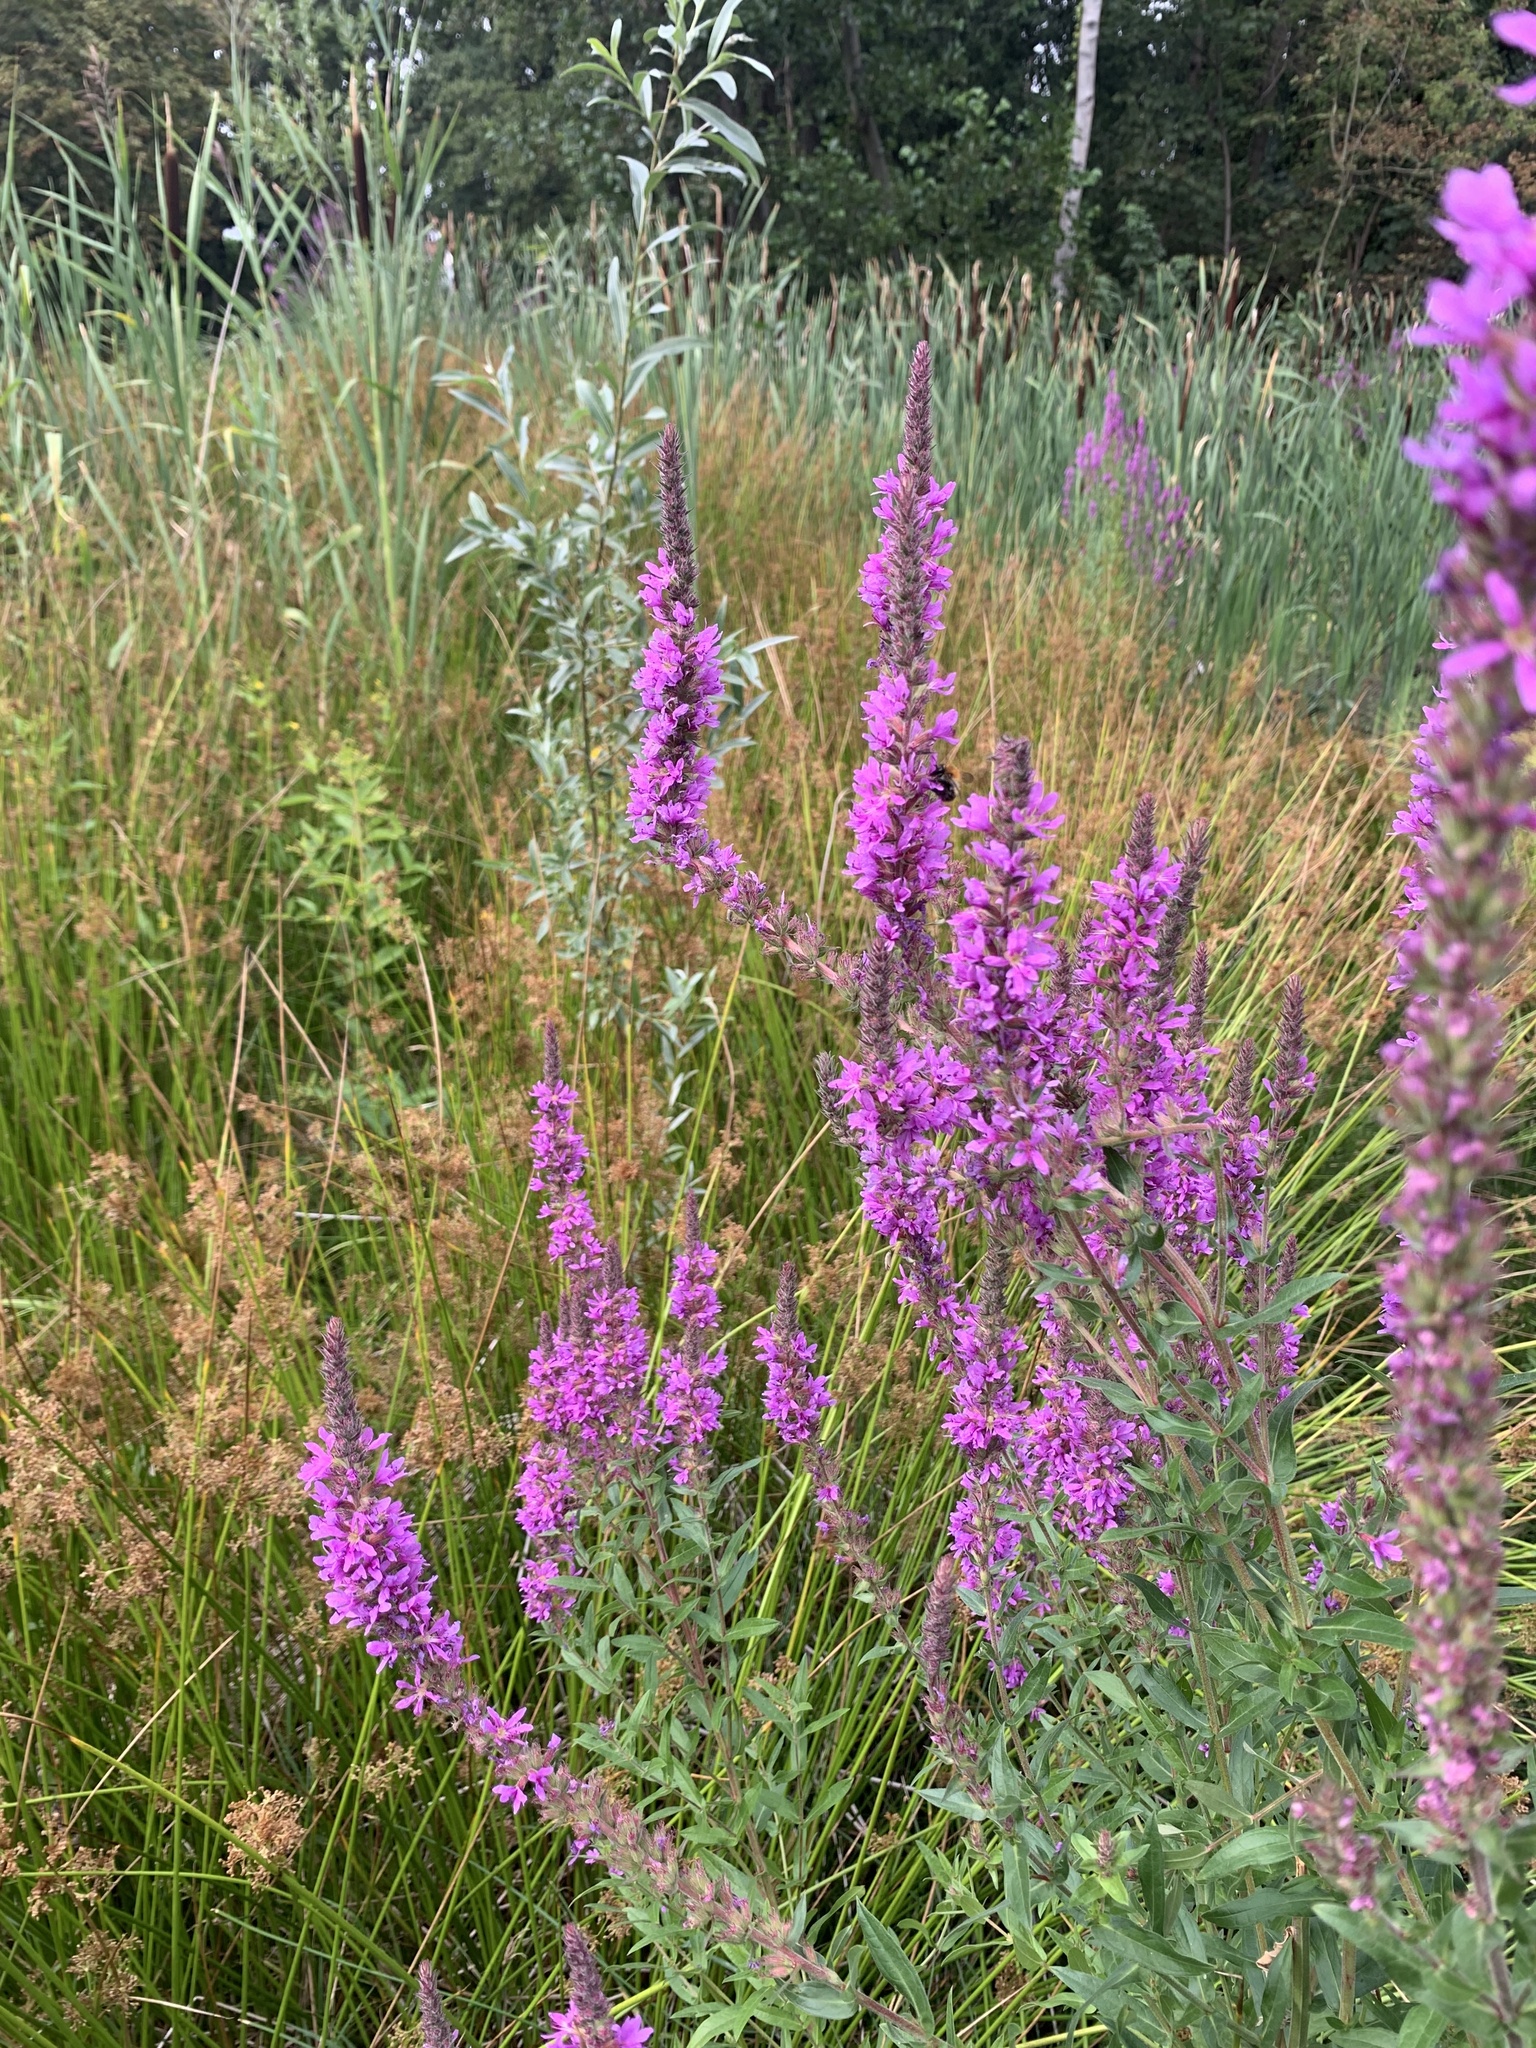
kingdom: Plantae
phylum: Tracheophyta
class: Magnoliopsida
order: Myrtales
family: Lythraceae
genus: Lythrum
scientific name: Lythrum salicaria
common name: Purple loosestrife
